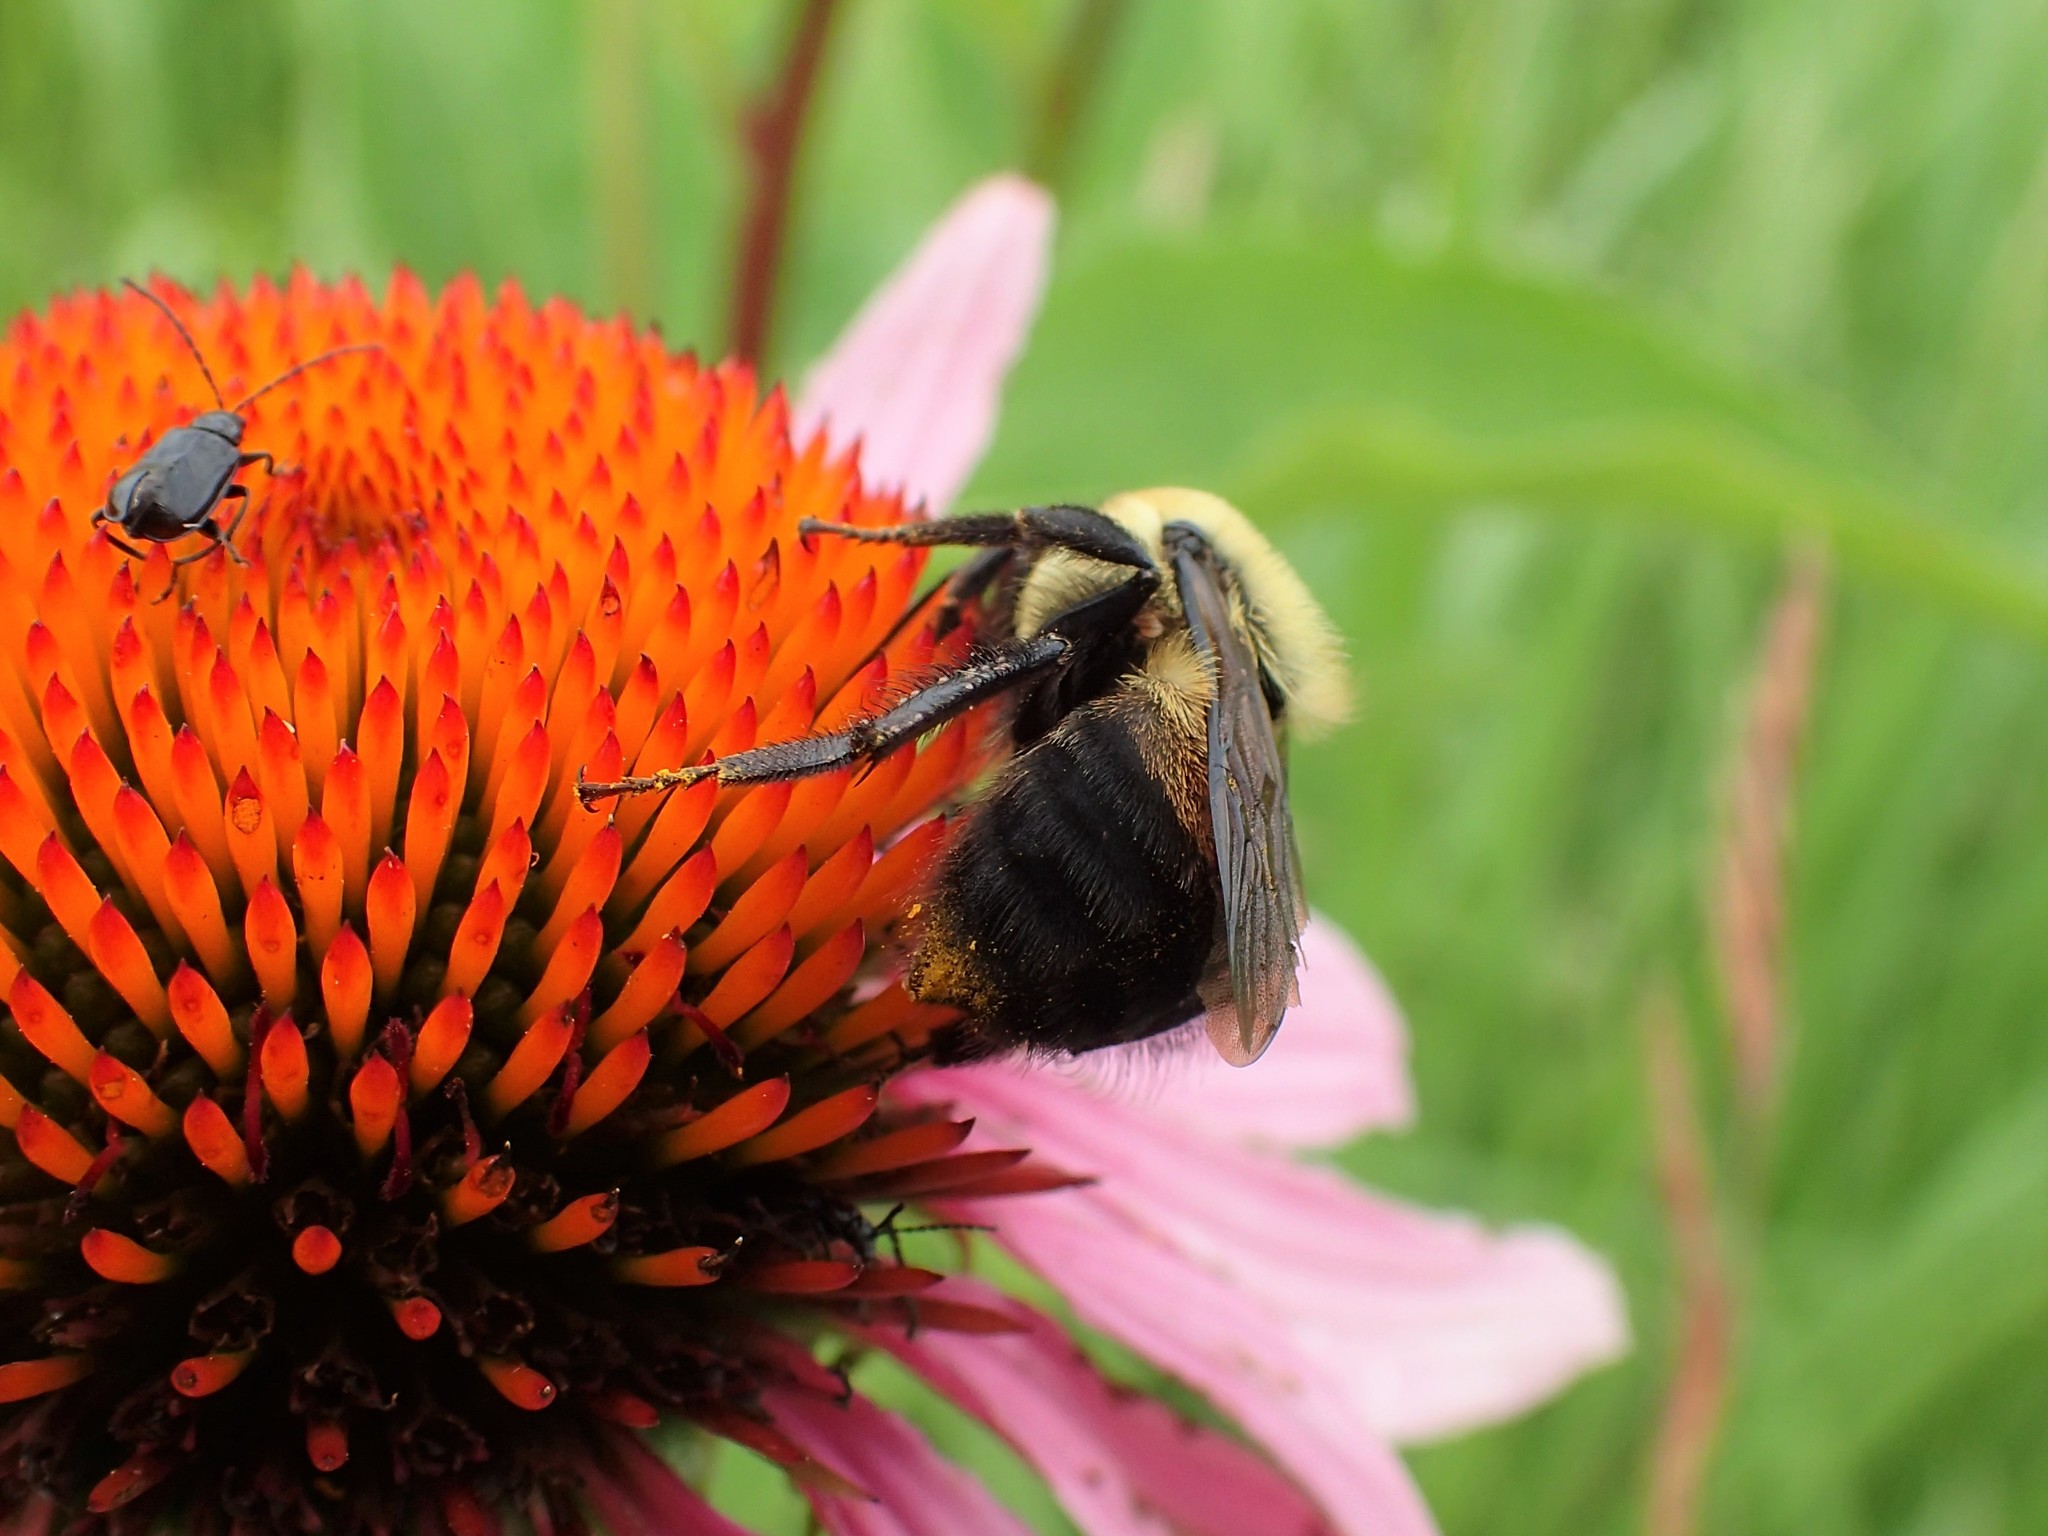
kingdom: Animalia
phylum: Arthropoda
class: Insecta
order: Hymenoptera
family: Apidae
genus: Bombus
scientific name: Bombus griseocollis
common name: Brown-belted bumble bee
